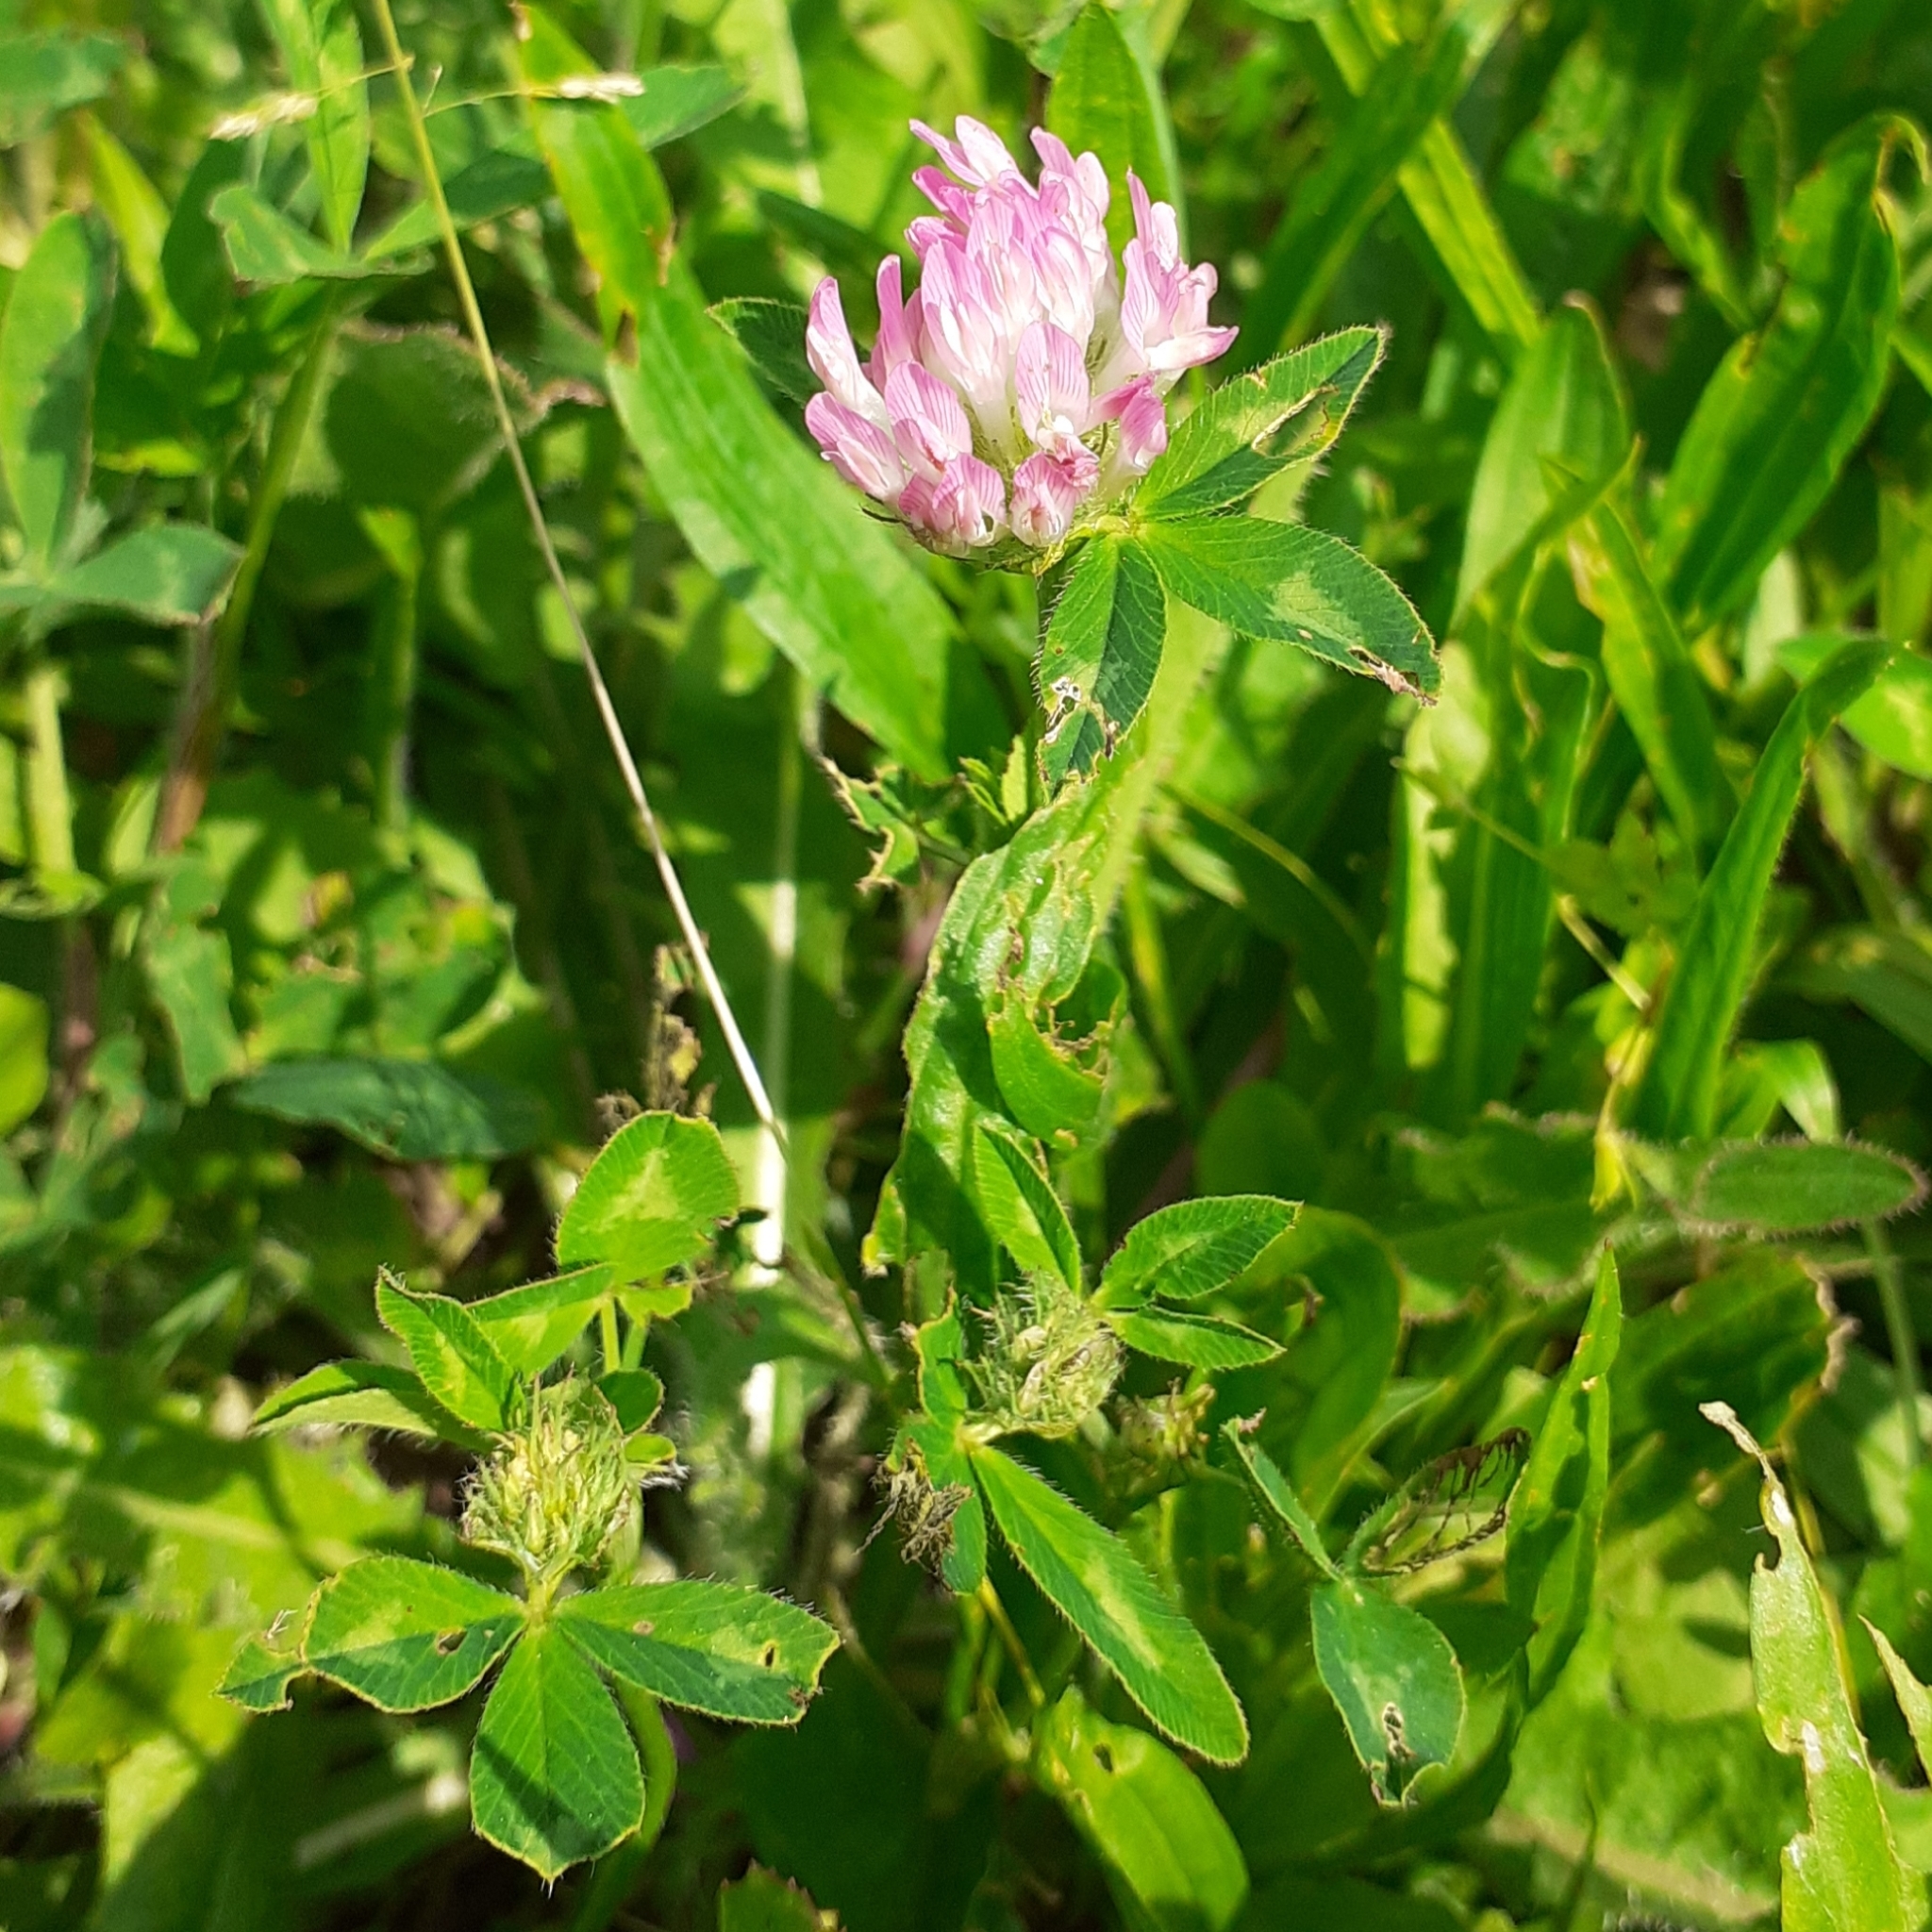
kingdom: Plantae
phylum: Tracheophyta
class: Magnoliopsida
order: Fabales
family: Fabaceae
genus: Trifolium
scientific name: Trifolium pratense
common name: Red clover
